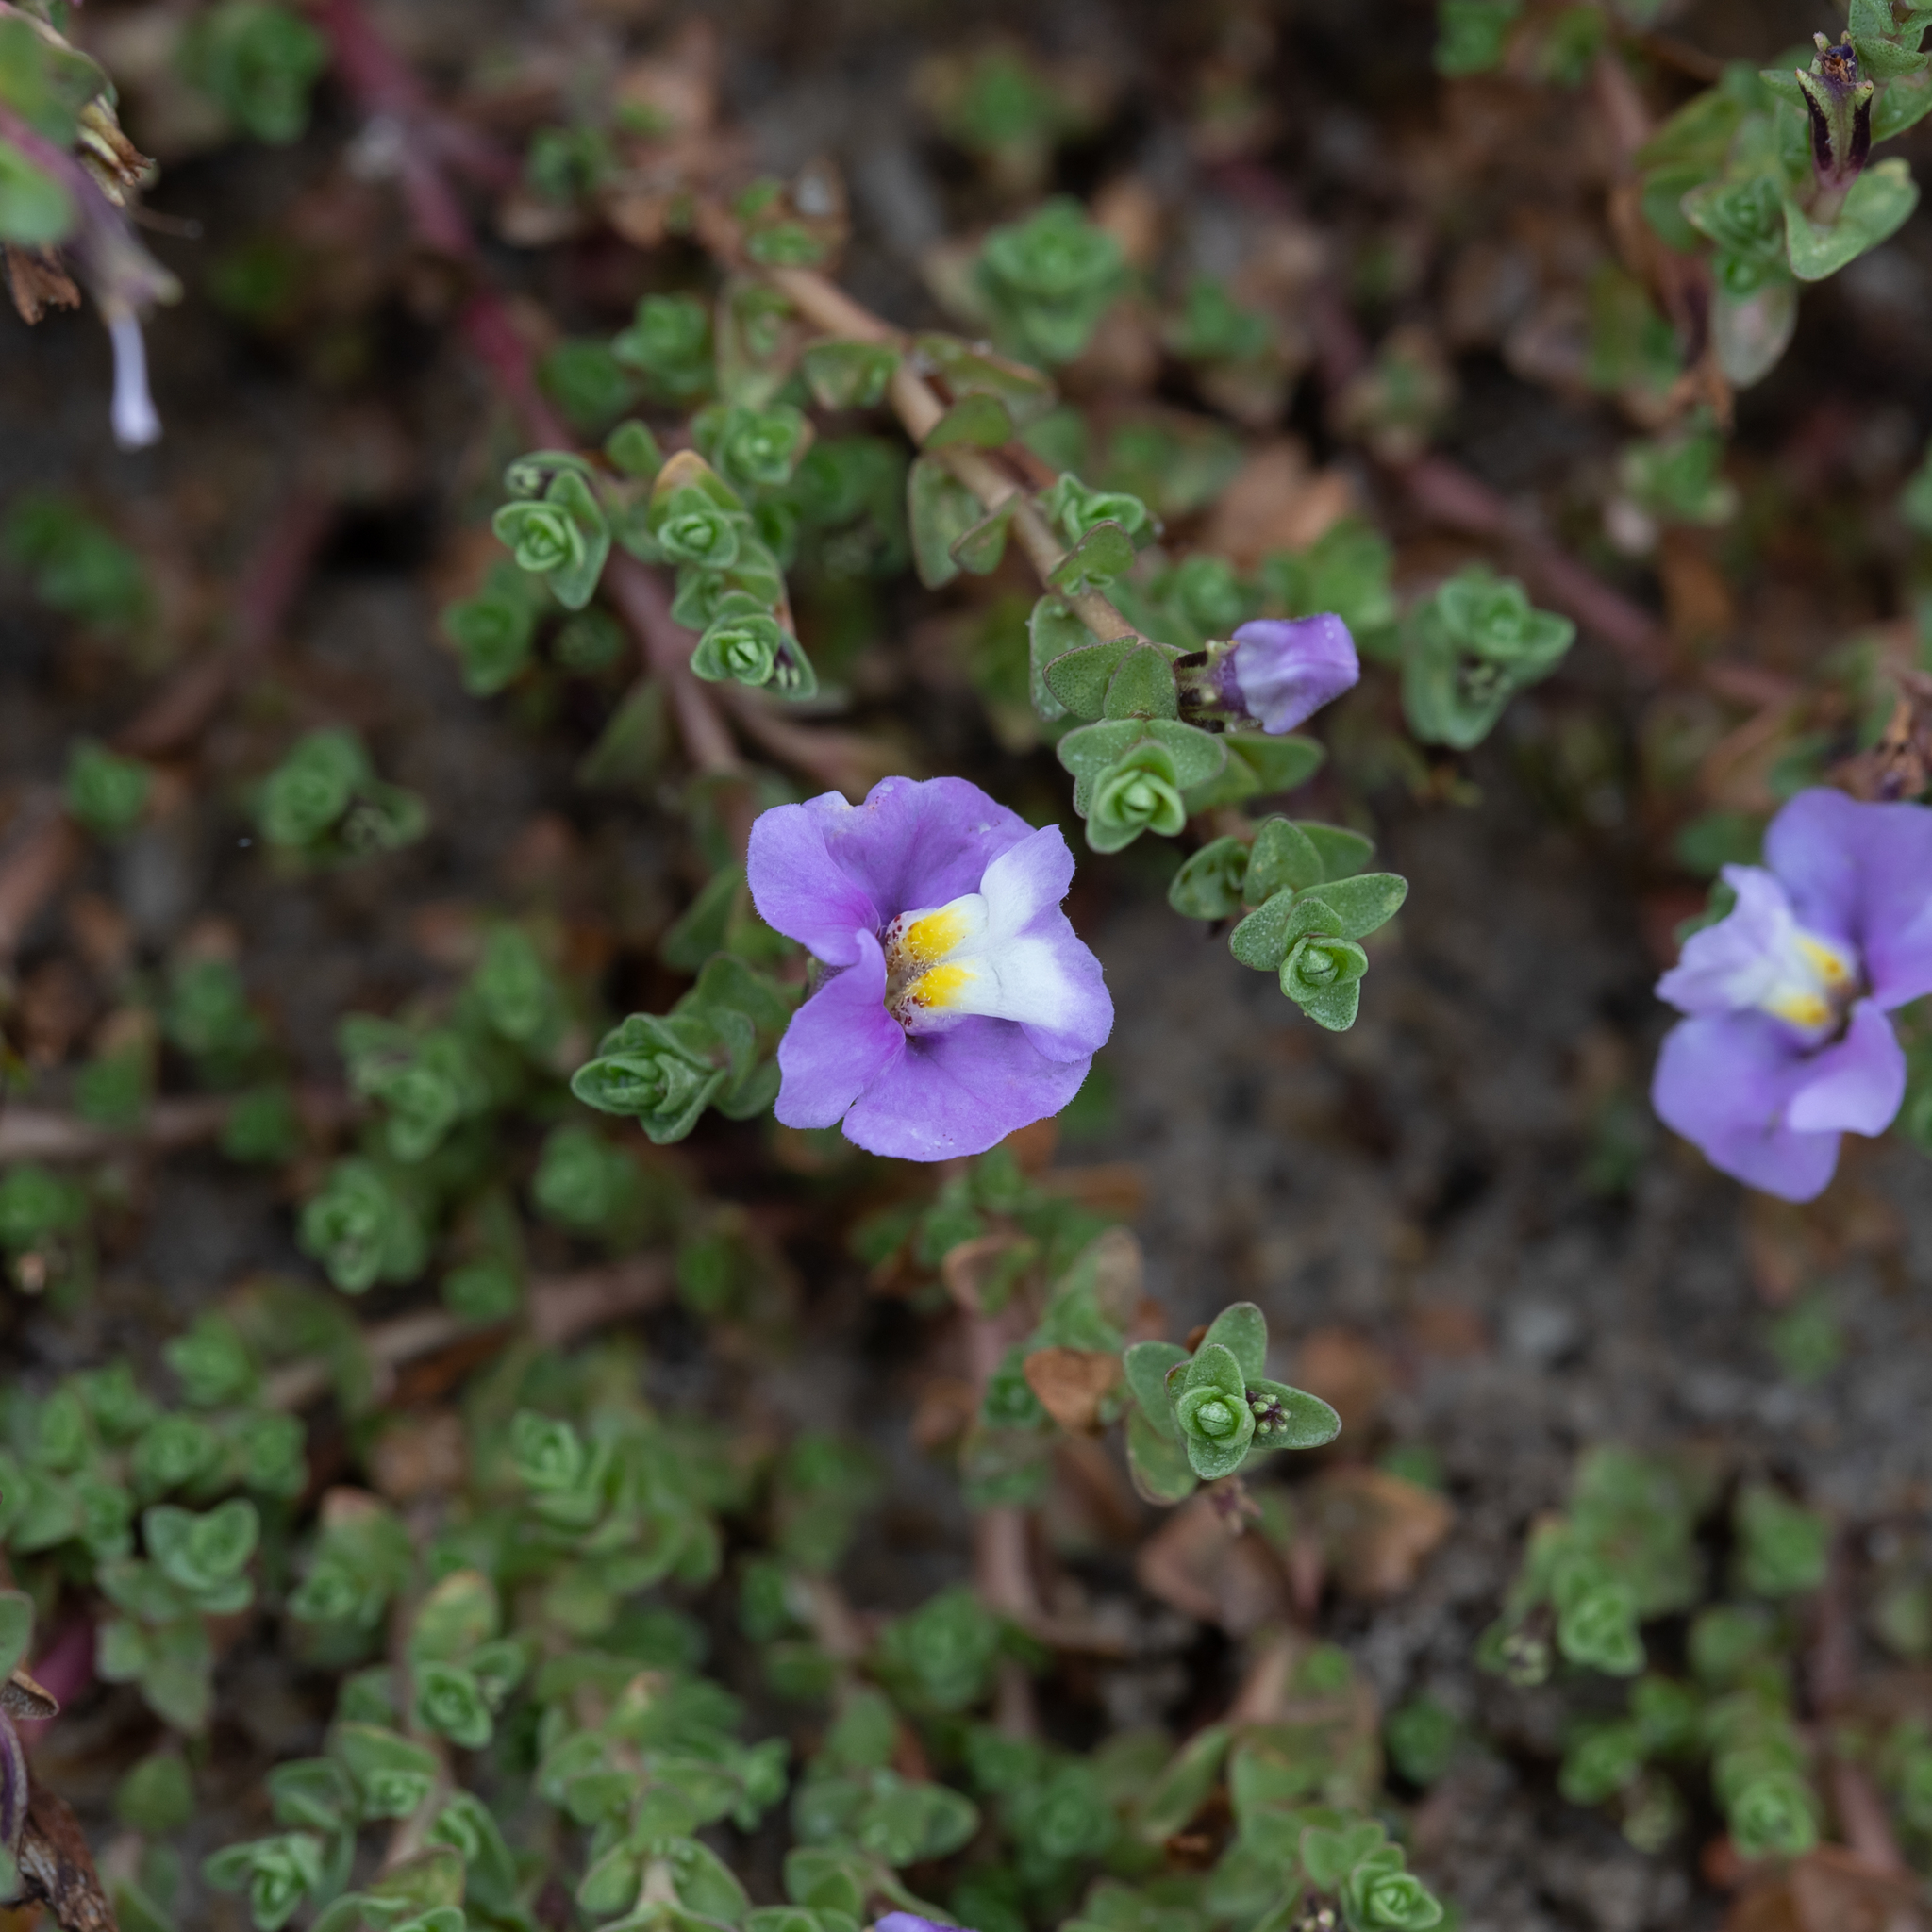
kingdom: Plantae
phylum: Tracheophyta
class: Magnoliopsida
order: Lamiales
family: Phrymaceae
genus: Thyridia
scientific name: Thyridia repens
